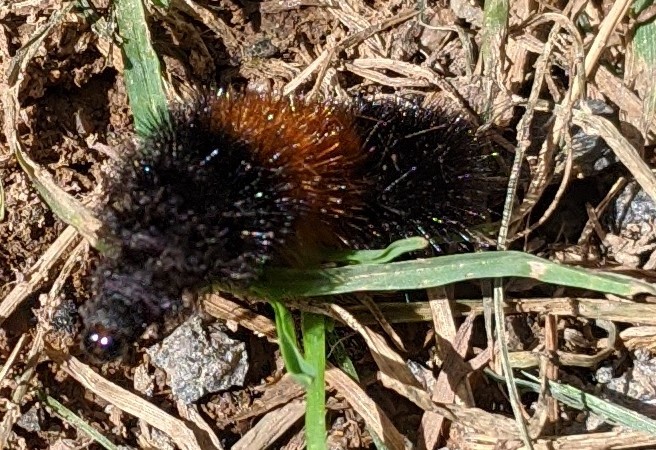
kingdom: Animalia
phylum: Arthropoda
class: Insecta
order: Lepidoptera
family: Erebidae
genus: Pyrrharctia
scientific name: Pyrrharctia isabella
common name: Isabella tiger moth
